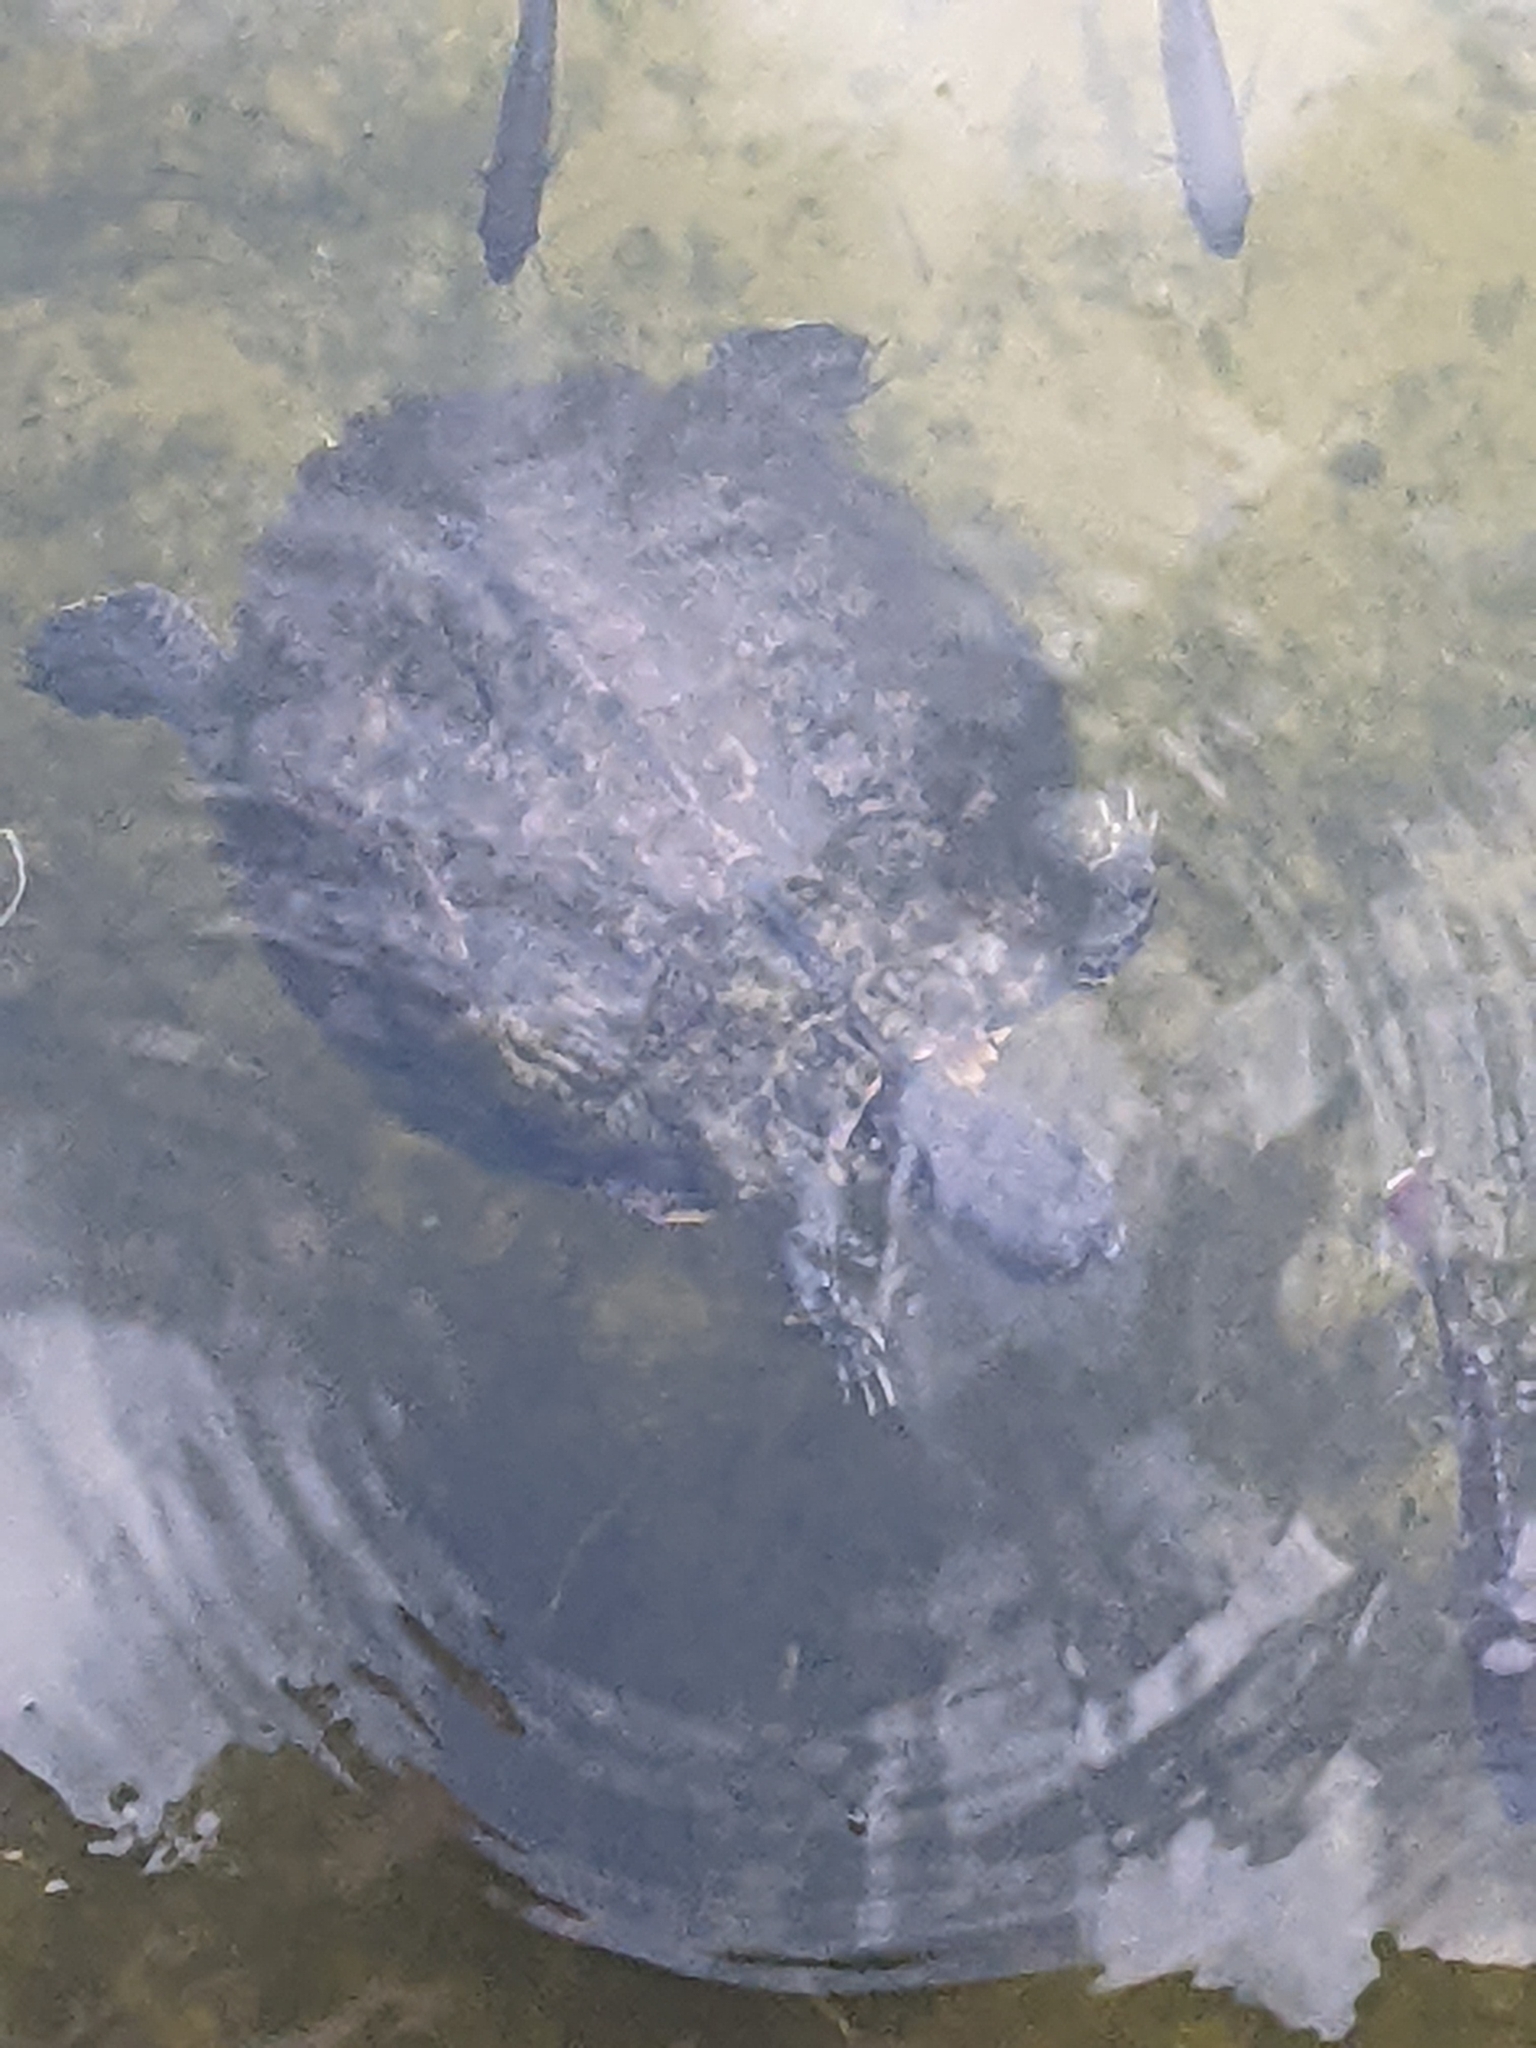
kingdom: Animalia
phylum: Chordata
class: Testudines
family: Emydidae
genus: Trachemys
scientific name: Trachemys scripta
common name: Slider
